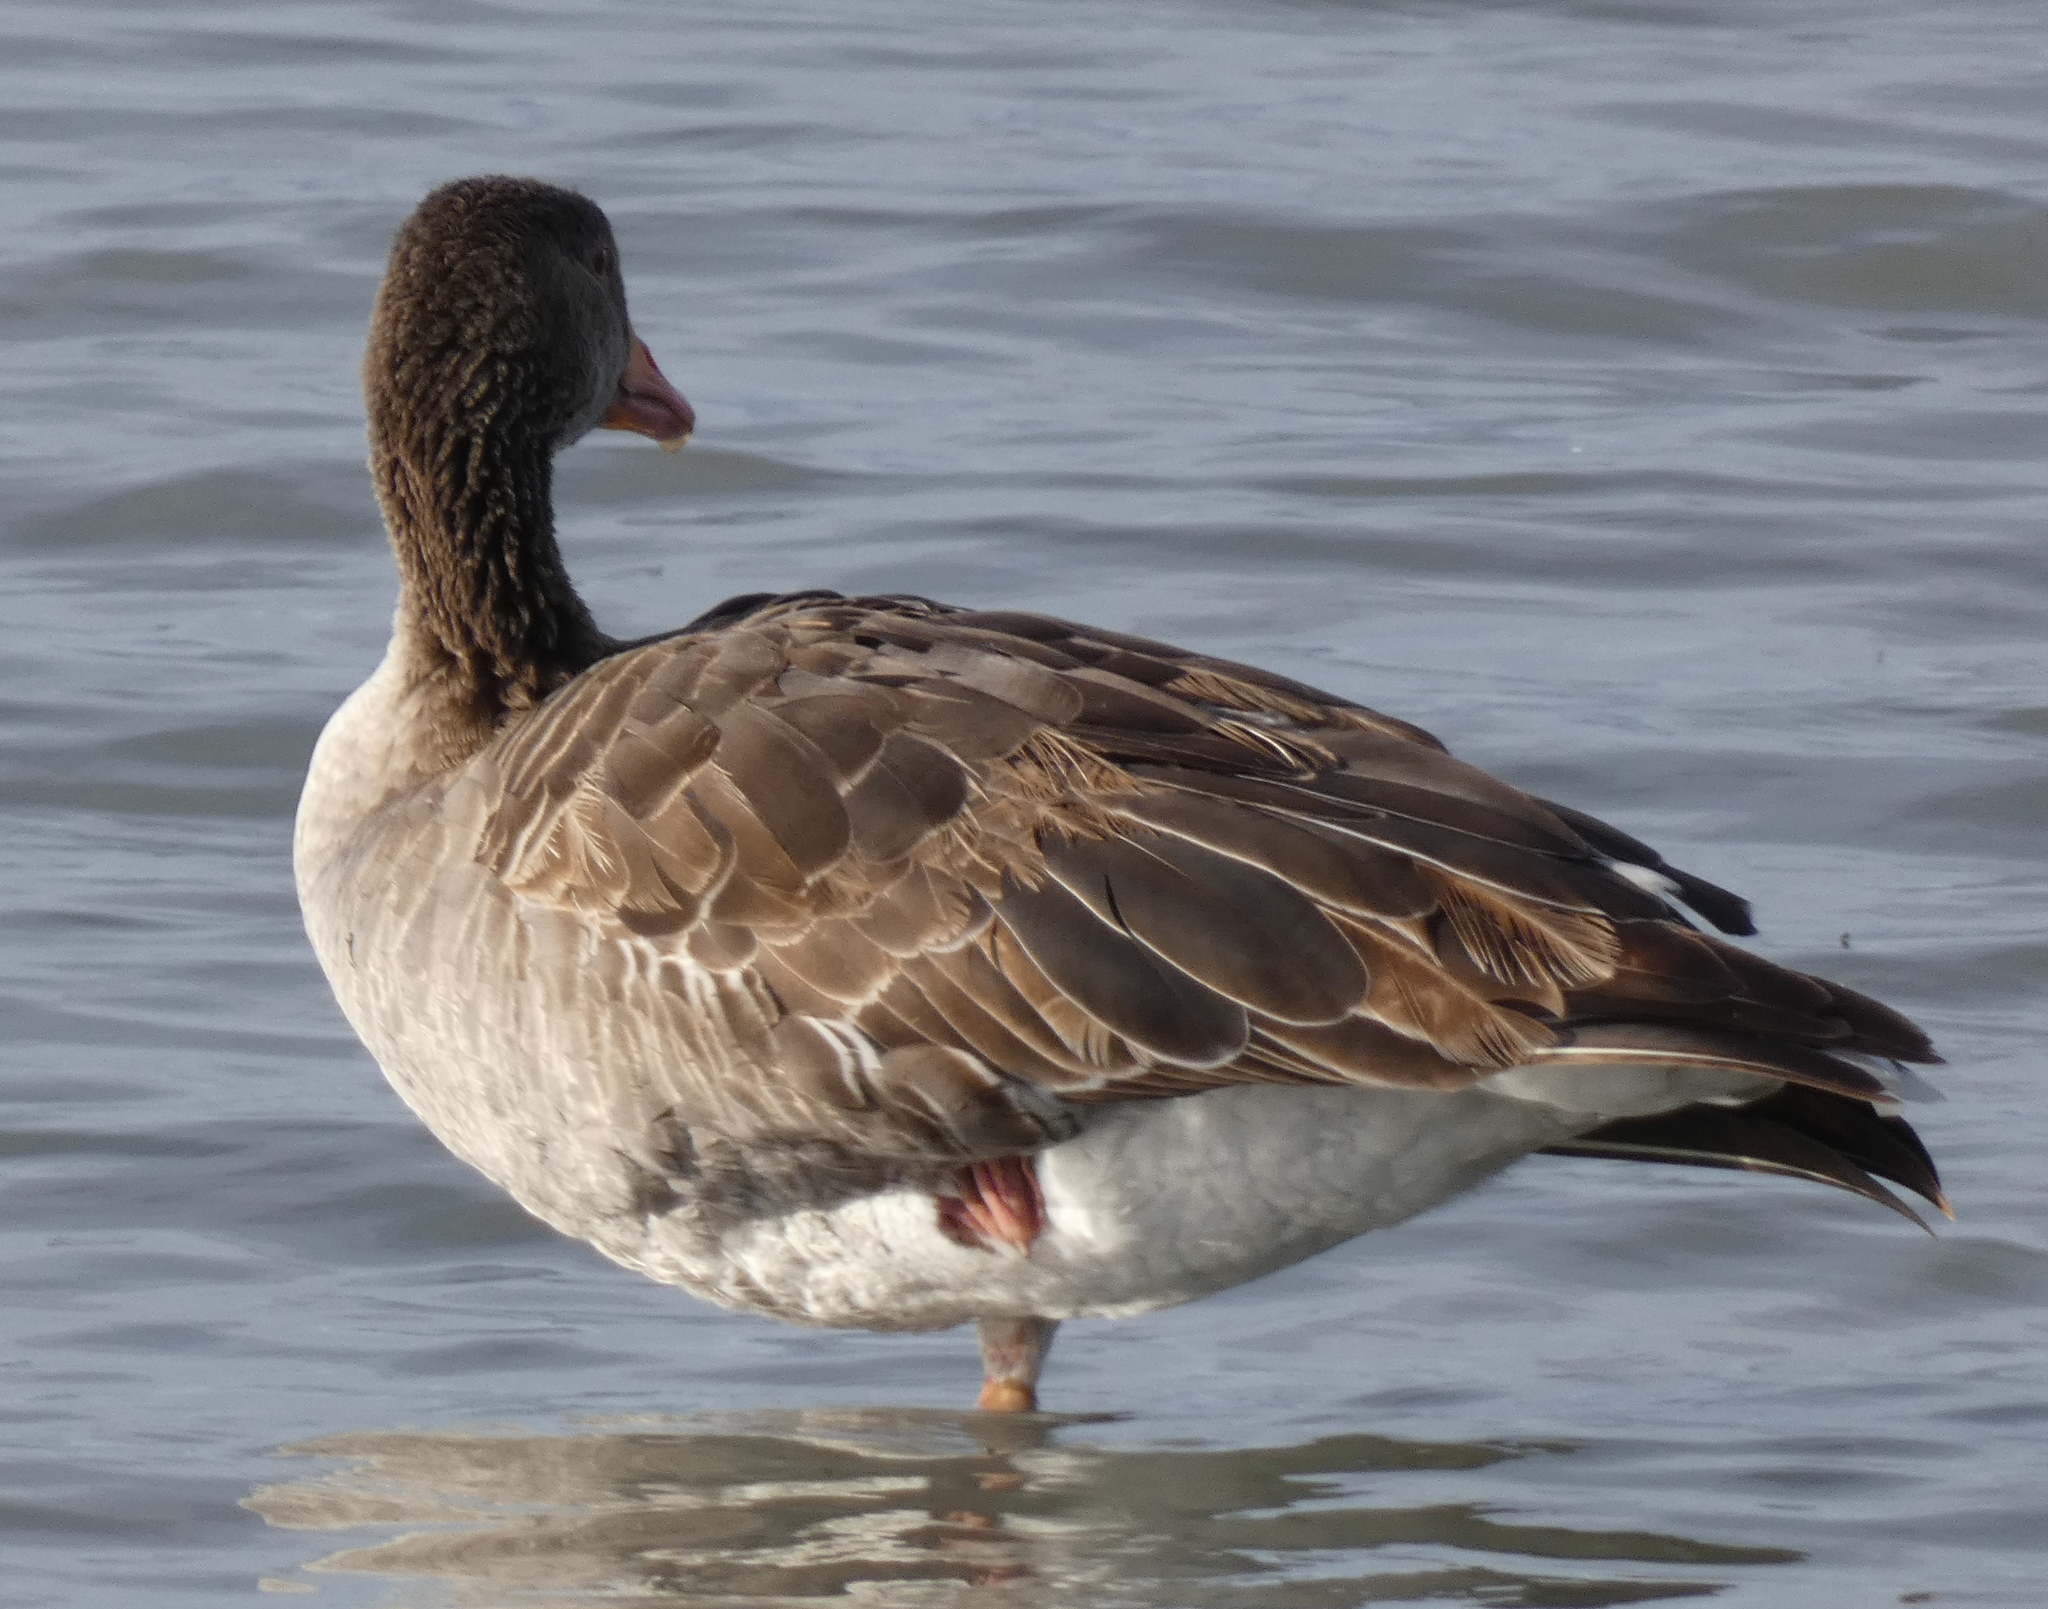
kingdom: Animalia
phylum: Chordata
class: Aves
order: Anseriformes
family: Anatidae
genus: Anser
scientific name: Anser anser
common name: Greylag goose
